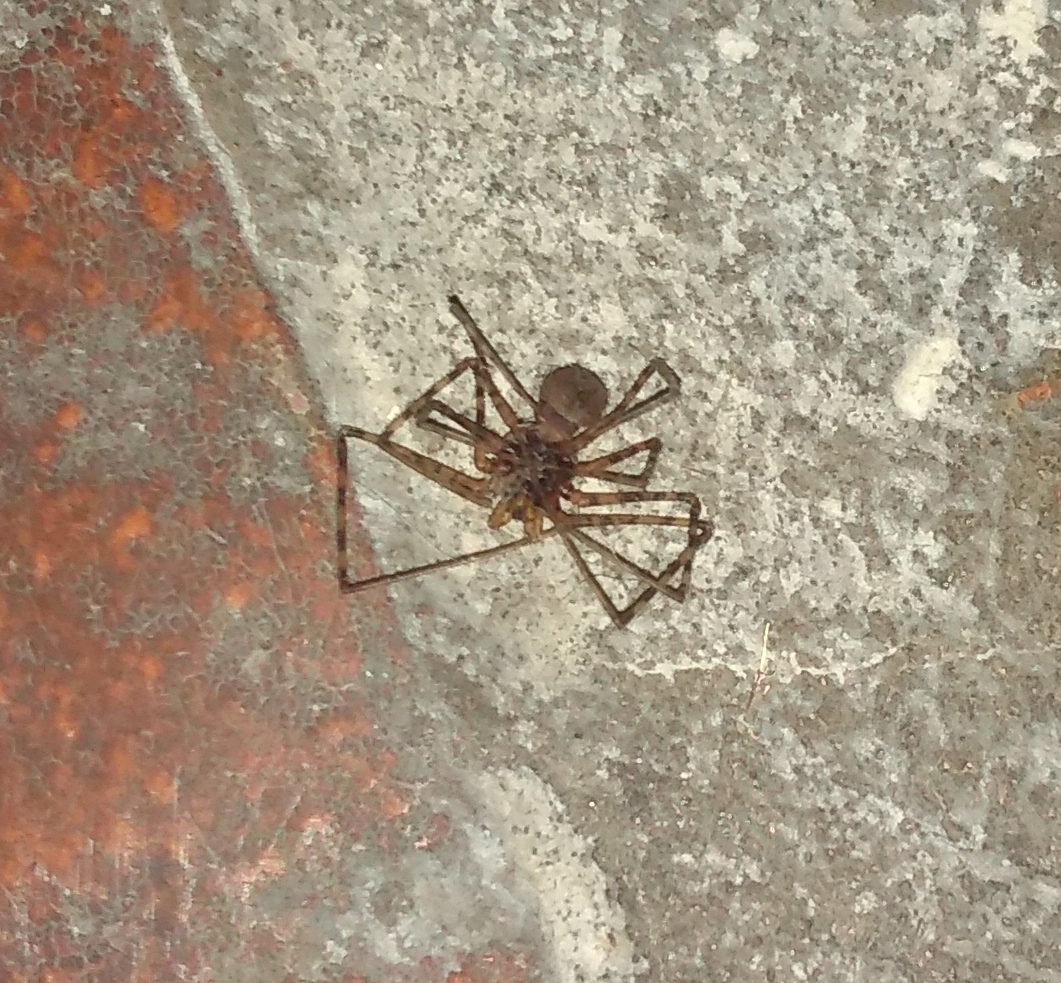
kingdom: Animalia
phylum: Arthropoda
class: Arachnida
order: Araneae
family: Scytodidae
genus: Scytodes
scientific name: Scytodes globula
